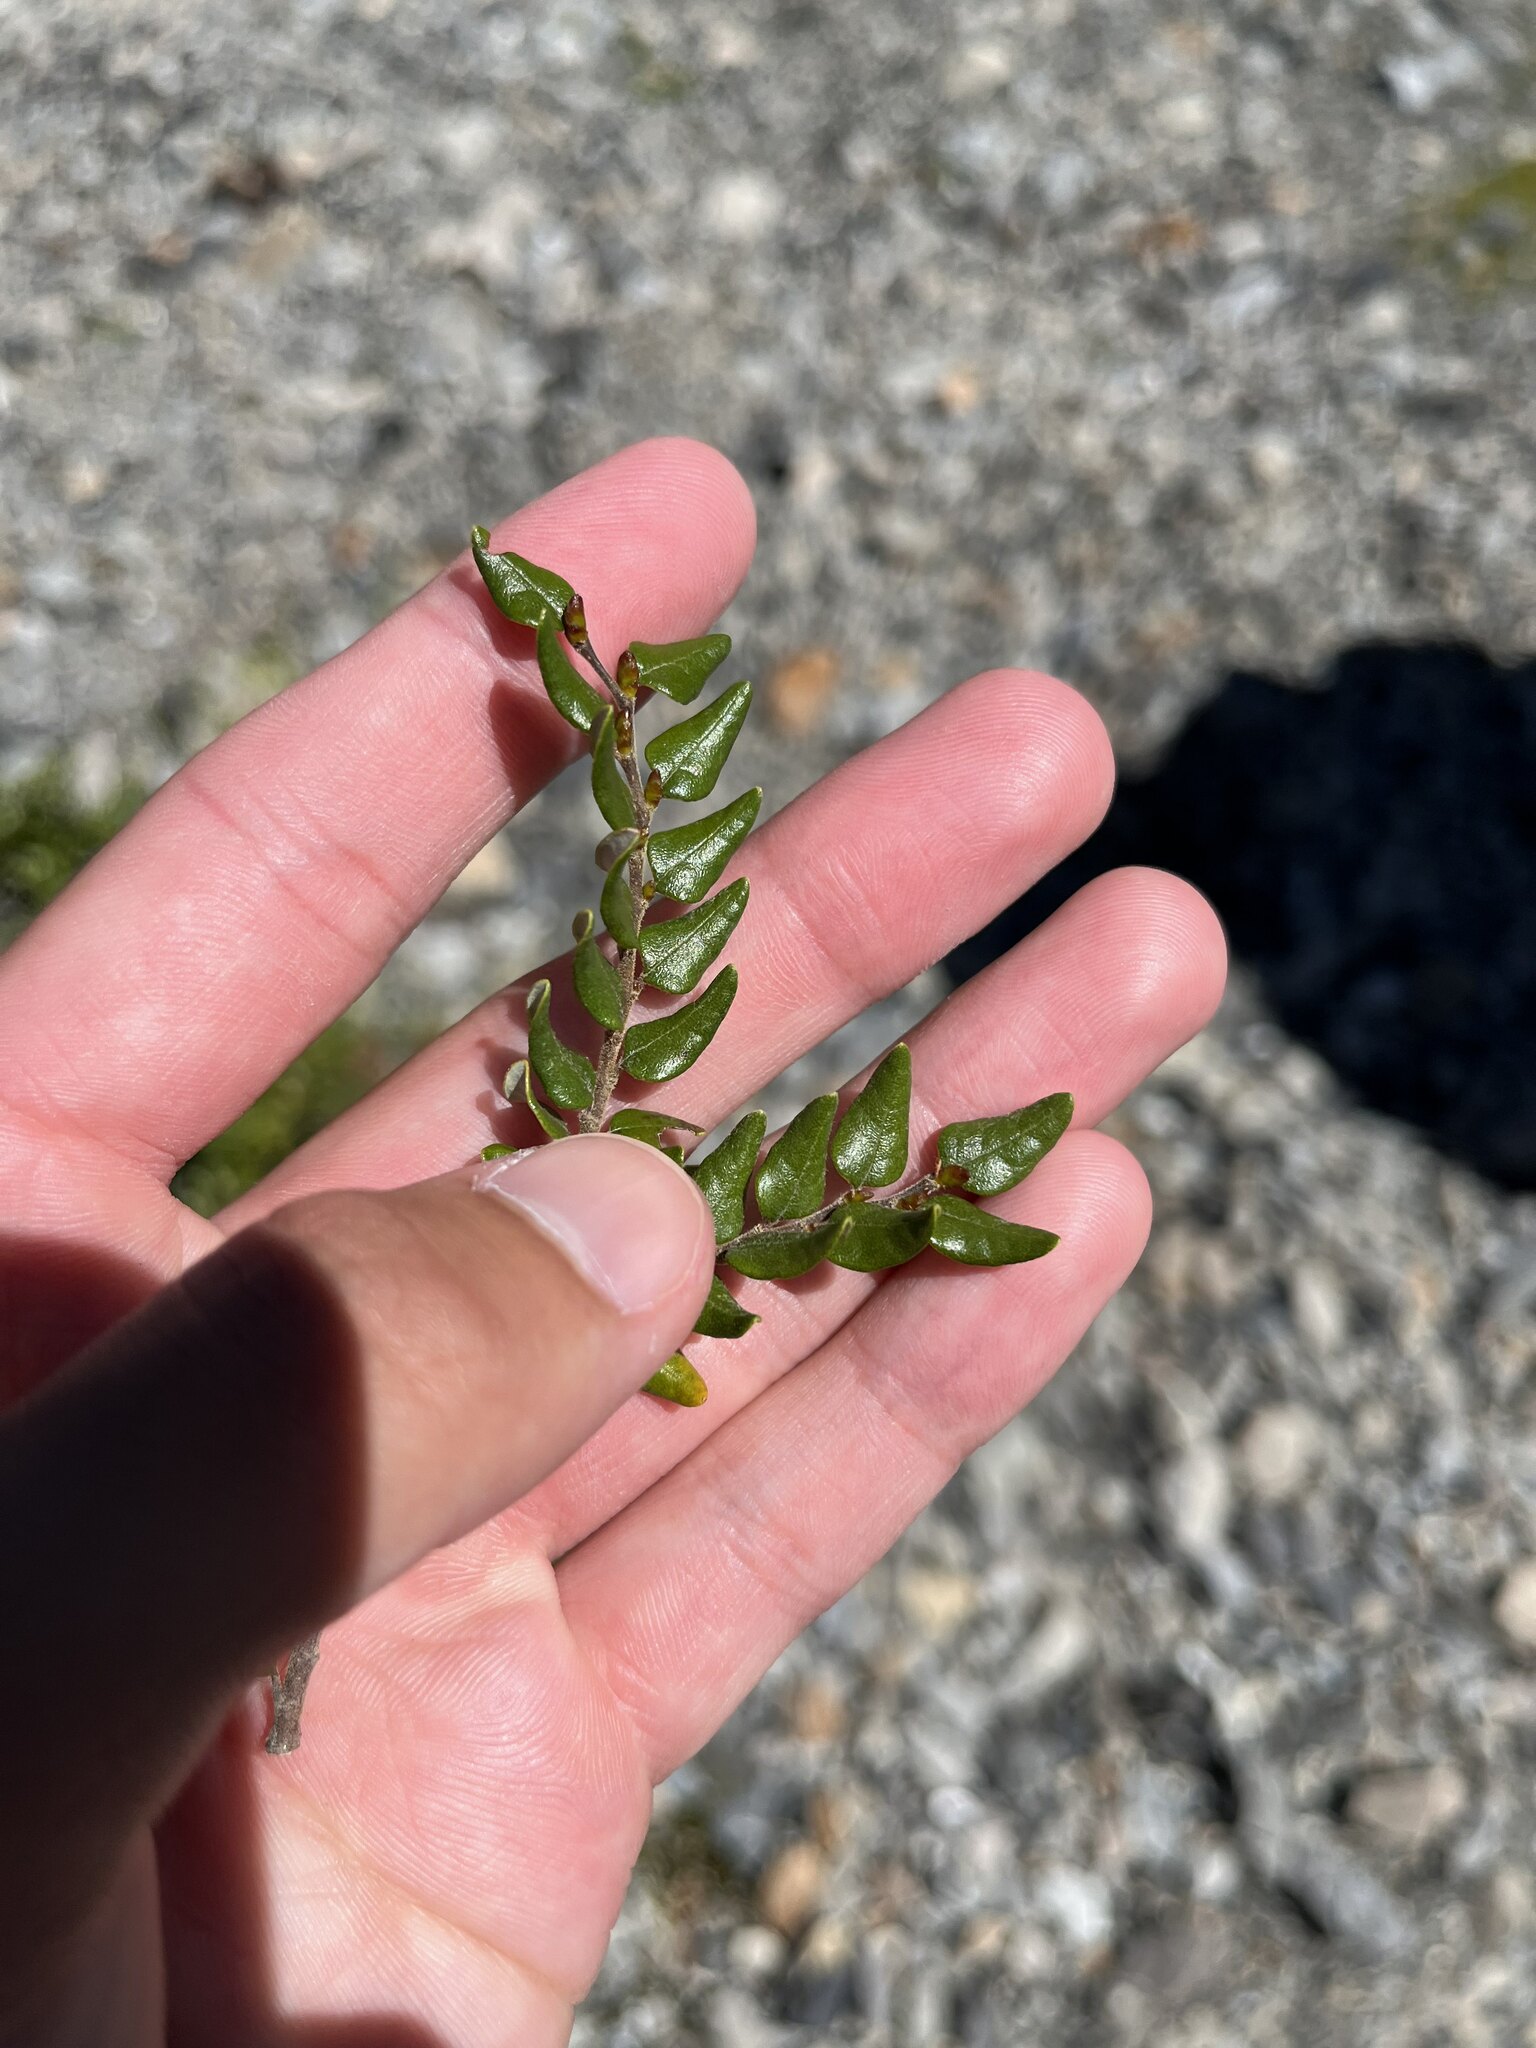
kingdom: Plantae
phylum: Tracheophyta
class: Magnoliopsida
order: Fagales
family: Nothofagaceae
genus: Nothofagus
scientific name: Nothofagus cliffortioides
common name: Mountain beech
